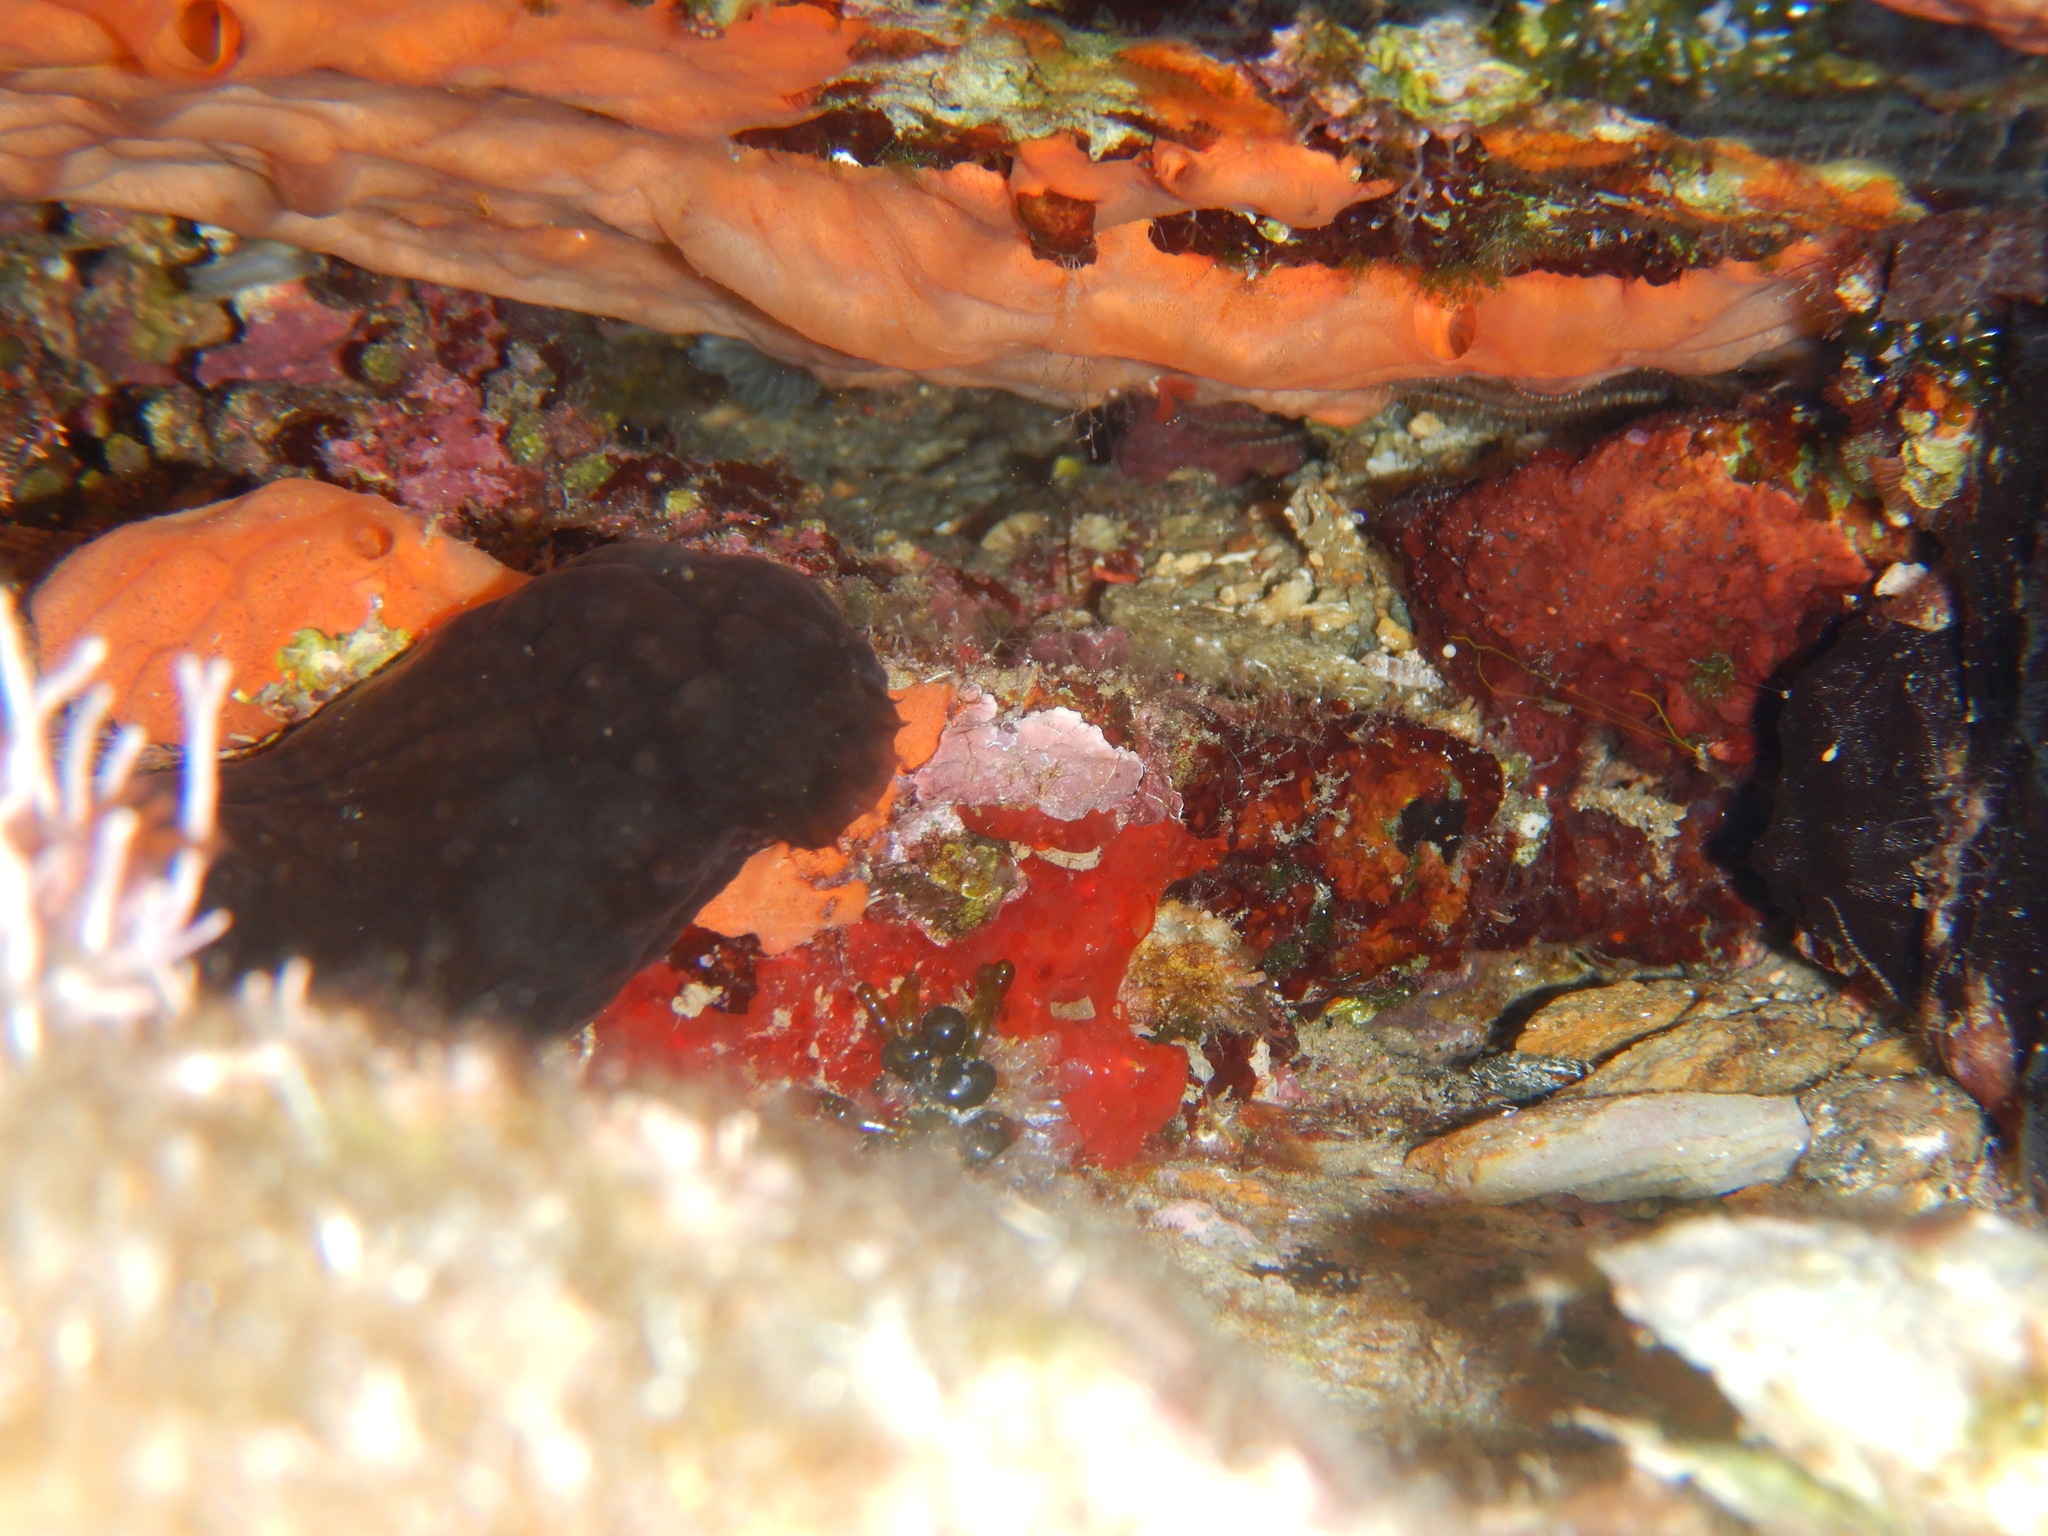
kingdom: Animalia
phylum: Chordata
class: Ascidiacea
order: Phlebobranchia
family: Ascidiidae
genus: Phallusia
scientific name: Phallusia fumigata
